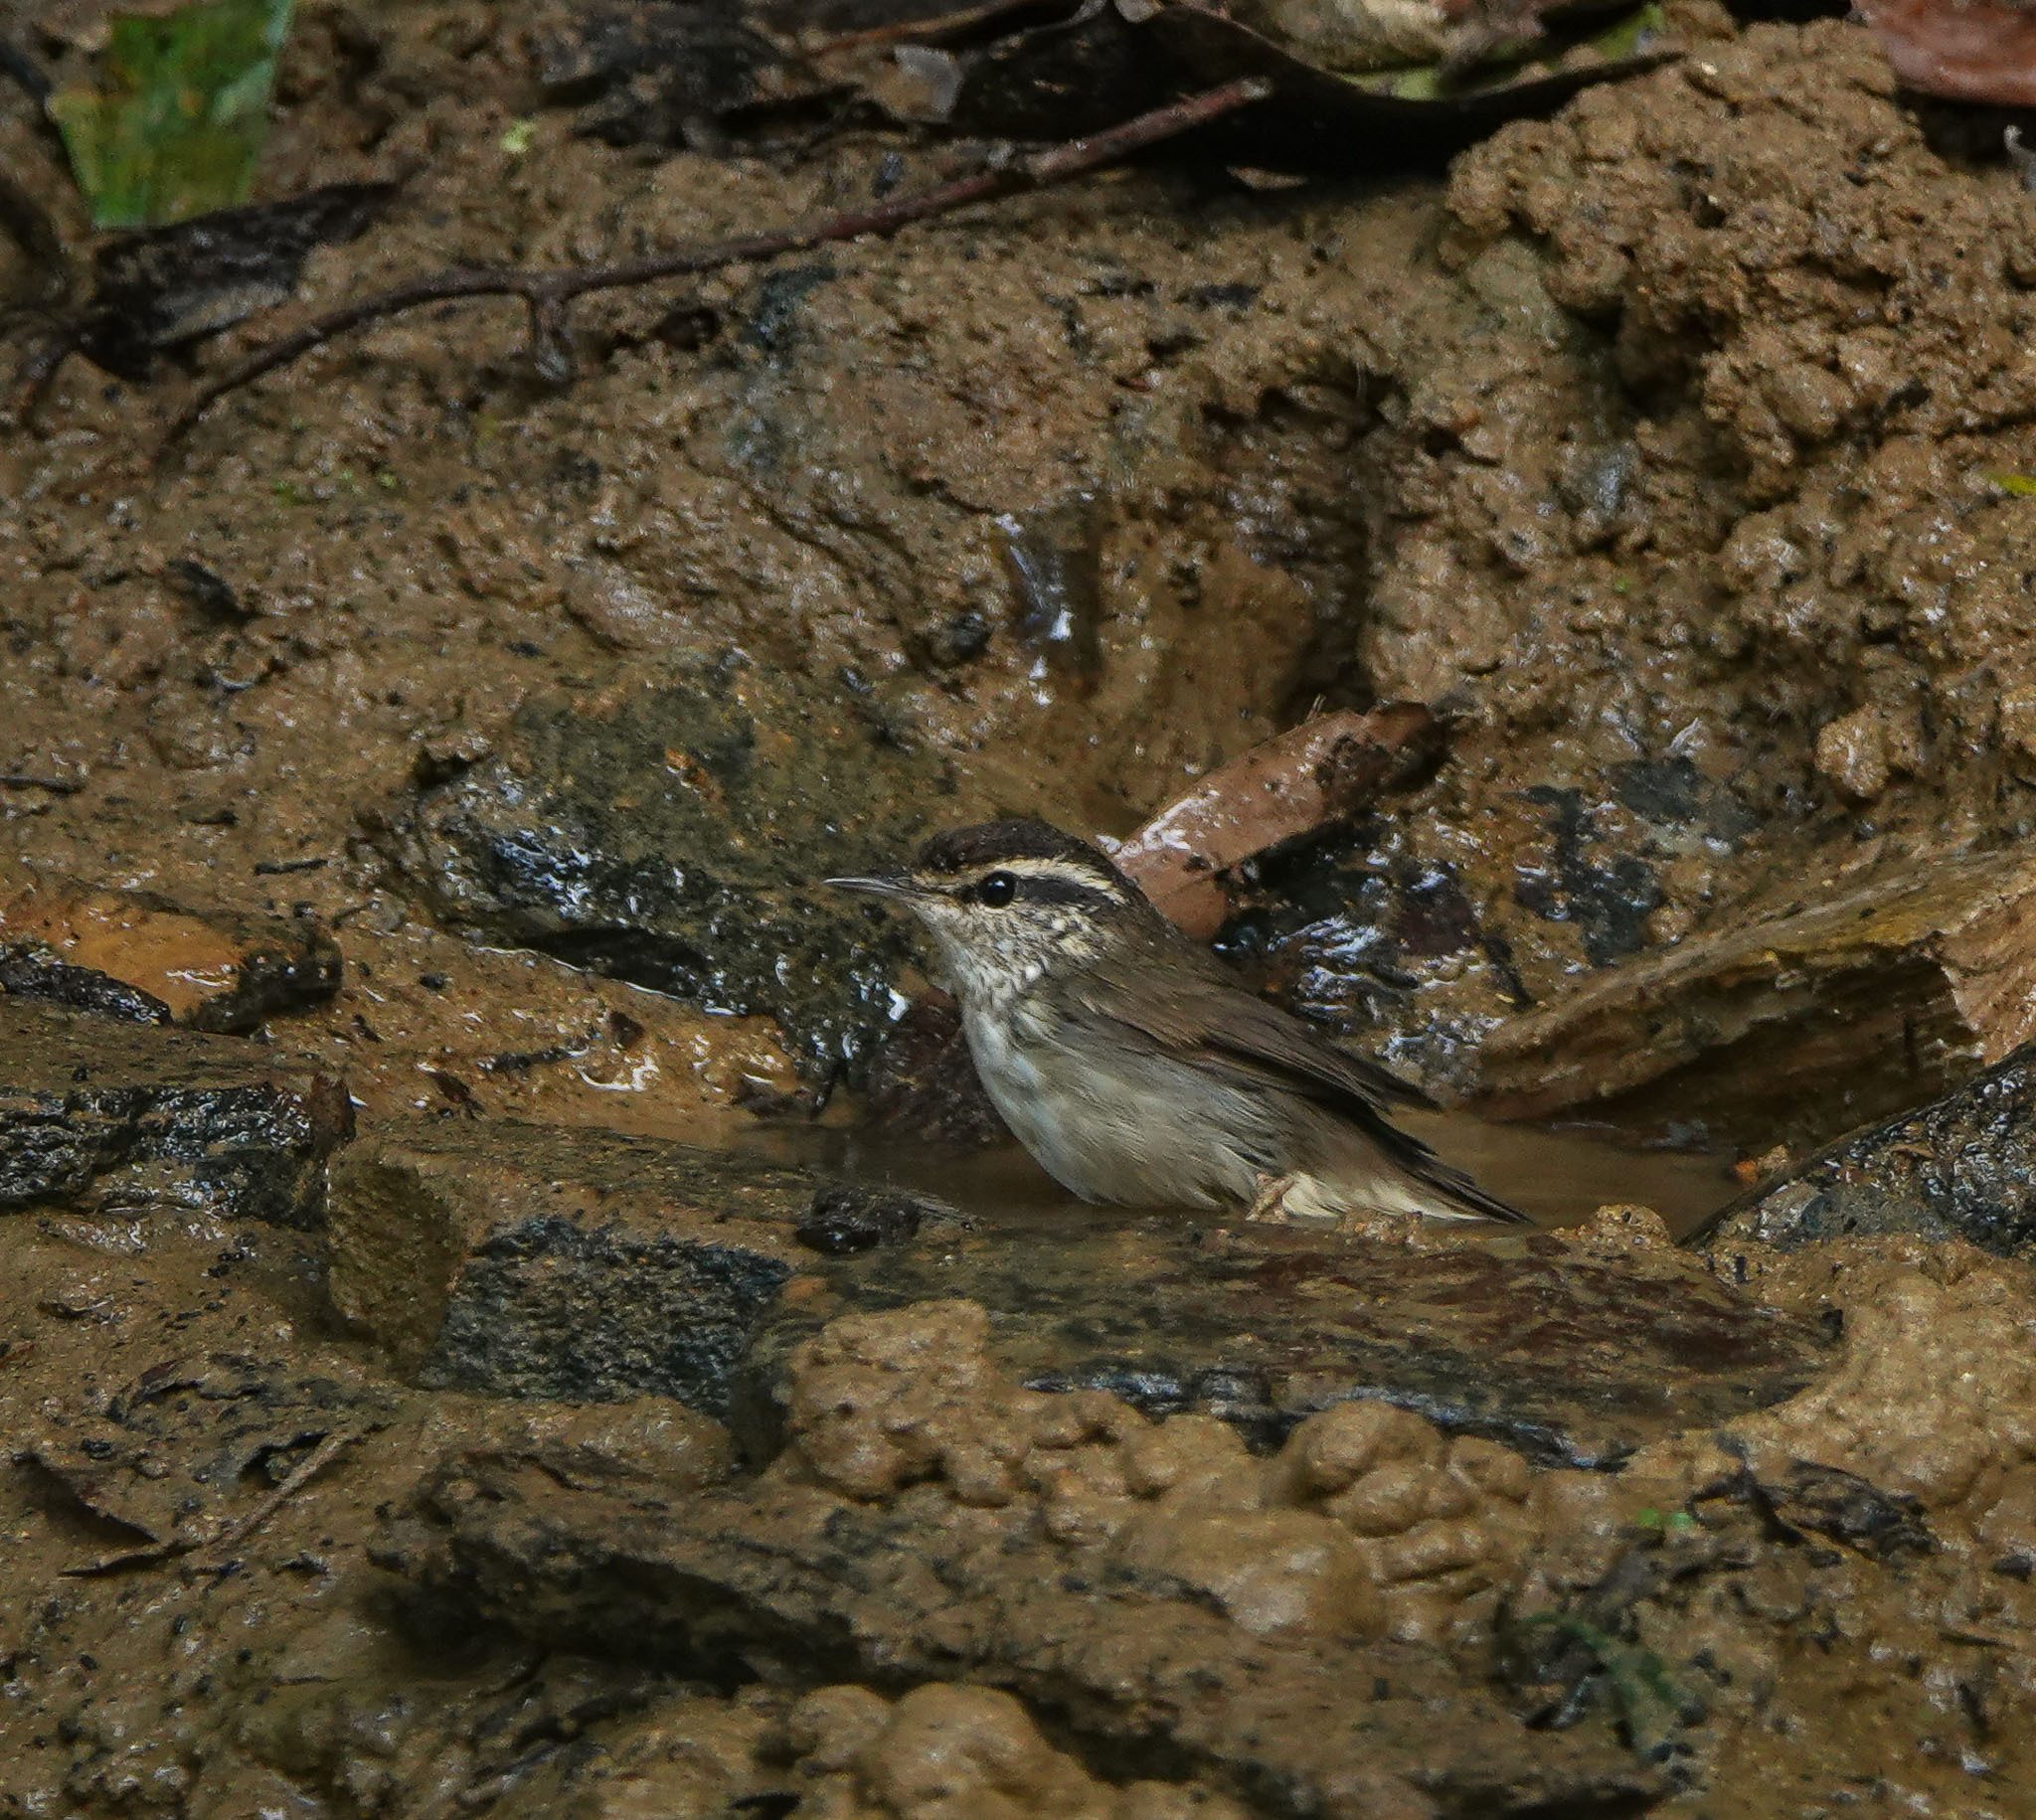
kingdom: Animalia
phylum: Chordata
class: Aves
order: Passeriformes
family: Cettiidae
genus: Urosphena
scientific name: Urosphena squameiceps
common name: Asian stubtail
